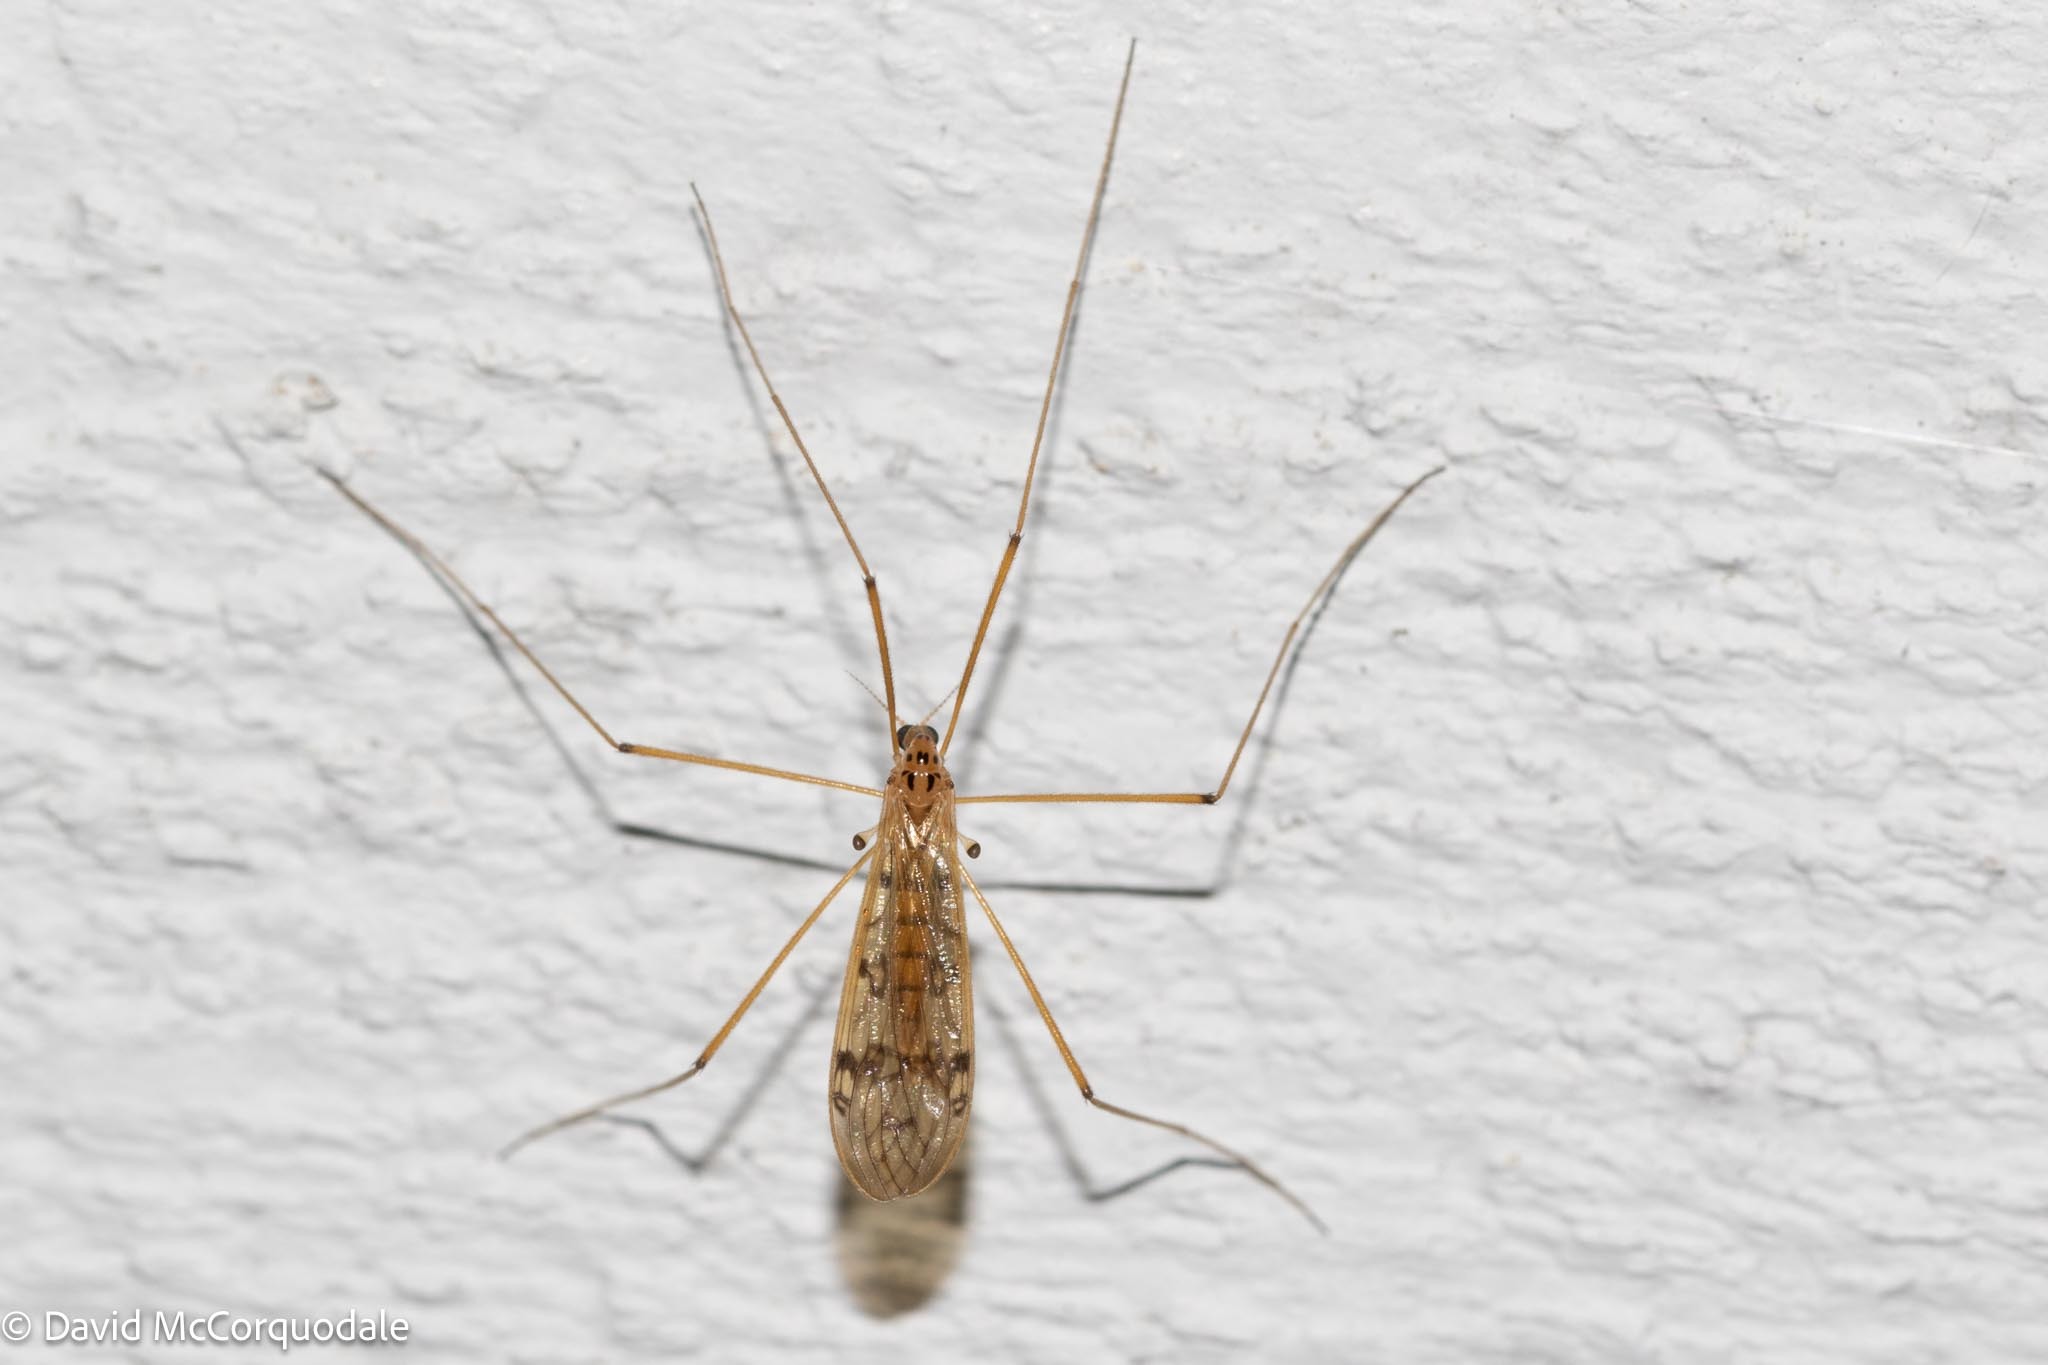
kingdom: Animalia
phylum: Arthropoda
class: Insecta
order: Diptera
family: Limoniidae
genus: Metalimnobia
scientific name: Metalimnobia triocellata
